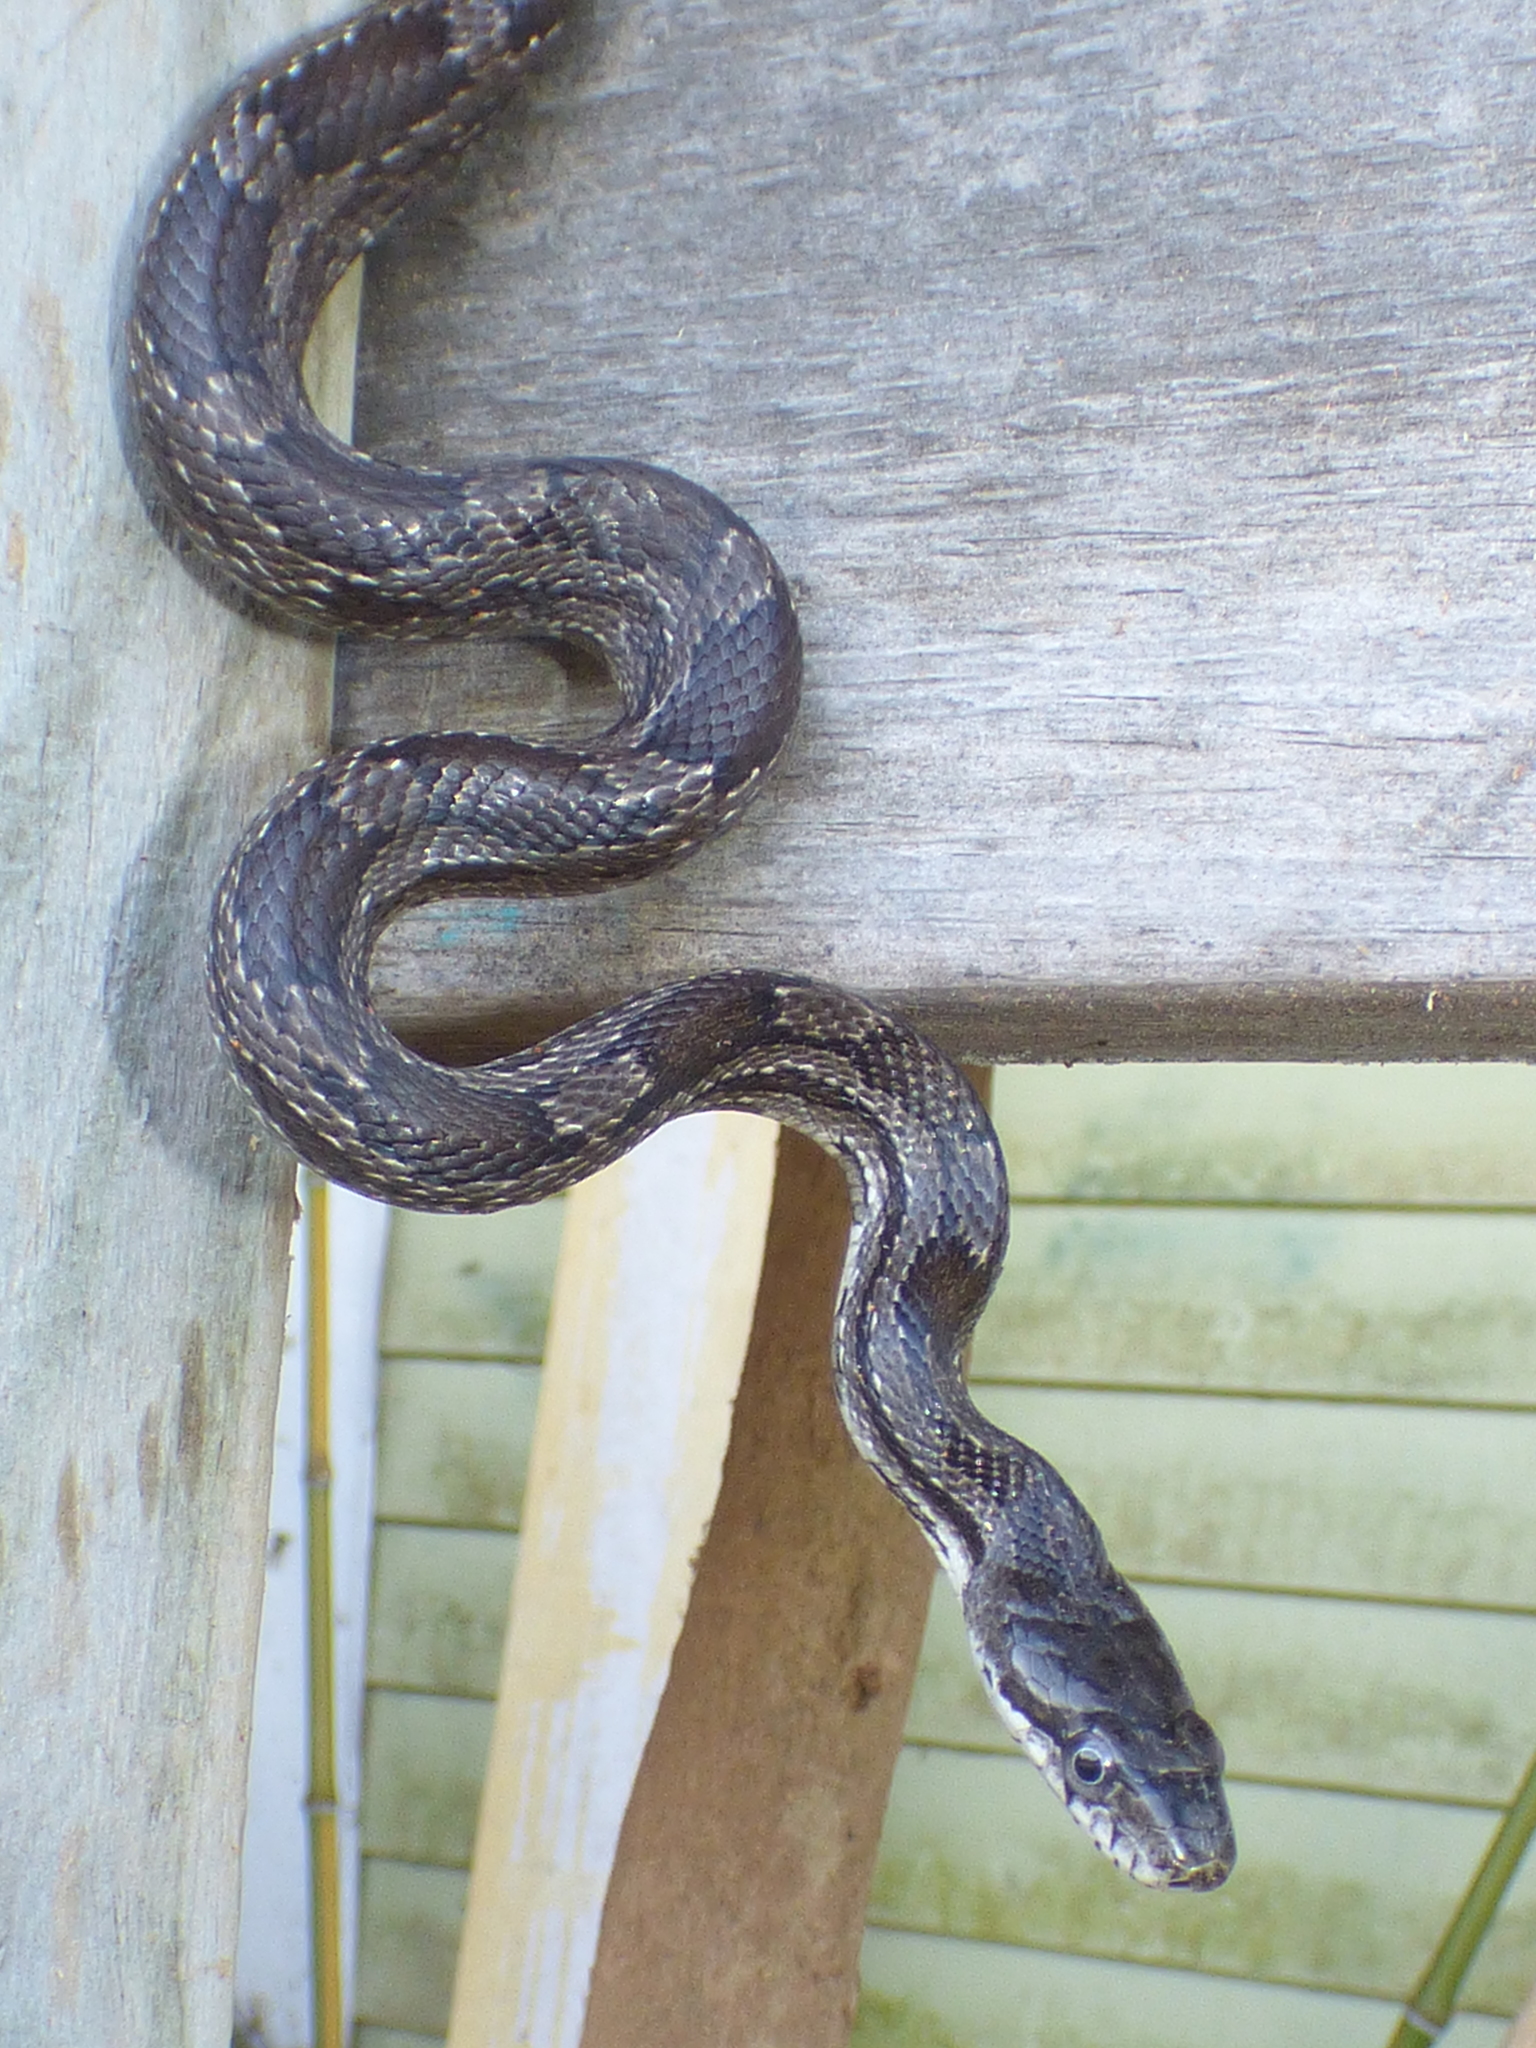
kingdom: Animalia
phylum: Chordata
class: Squamata
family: Colubridae
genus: Pantherophis
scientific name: Pantherophis alleghaniensis
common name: Eastern rat snake
